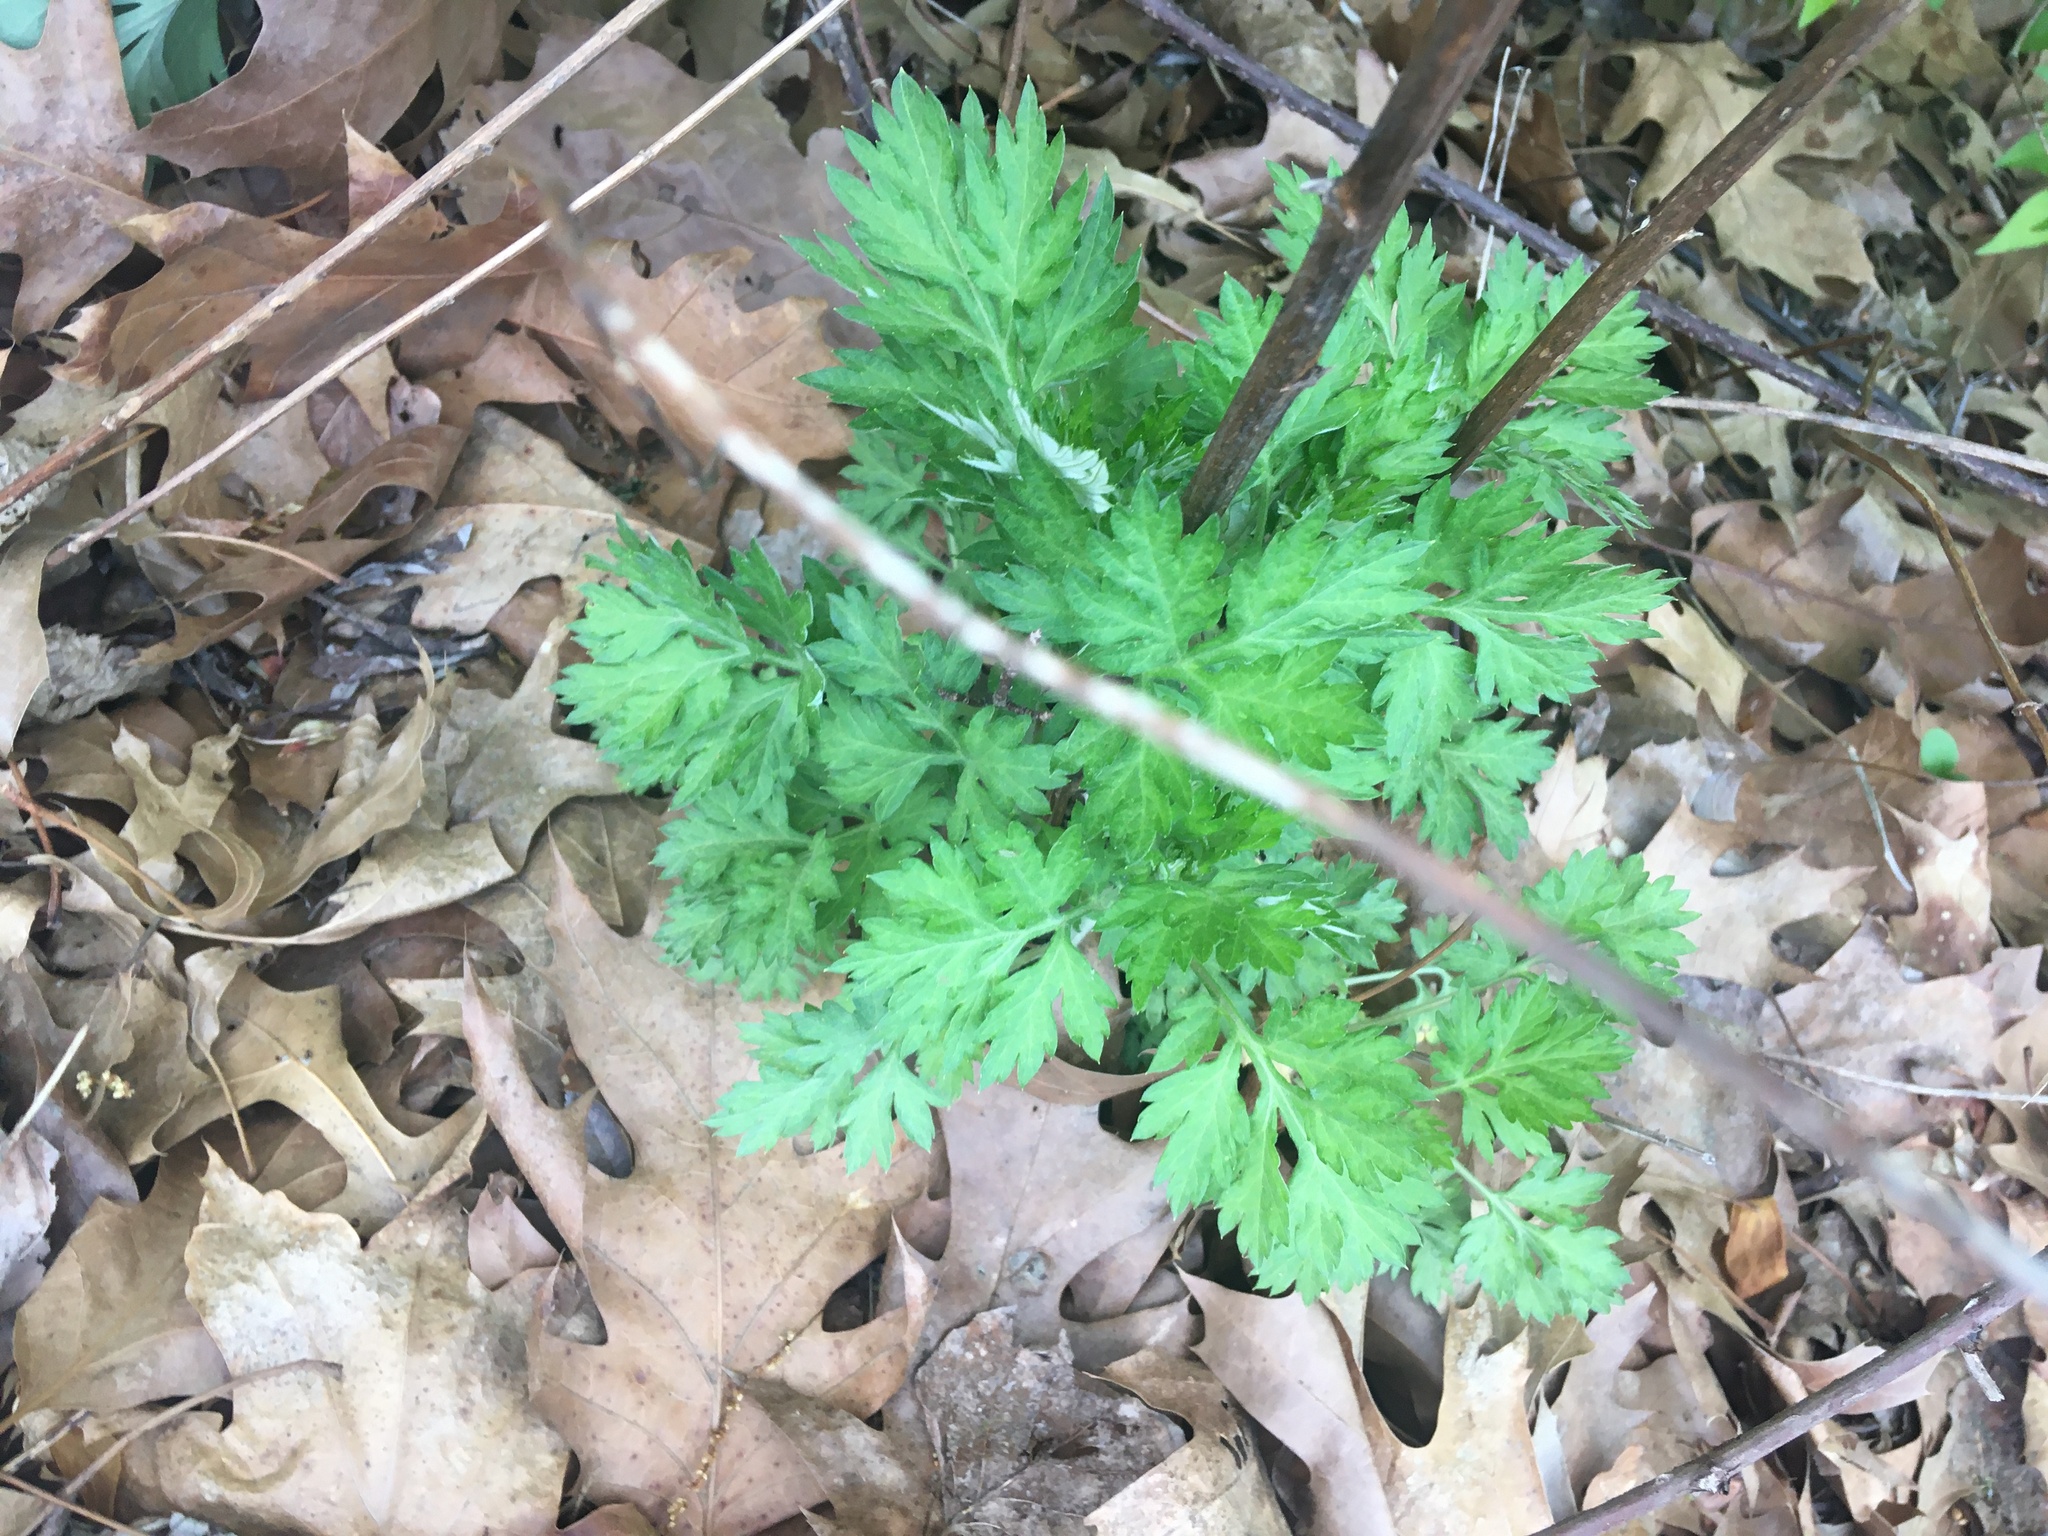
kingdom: Plantae
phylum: Tracheophyta
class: Magnoliopsida
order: Asterales
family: Asteraceae
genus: Artemisia
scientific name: Artemisia vulgaris
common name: Mugwort
